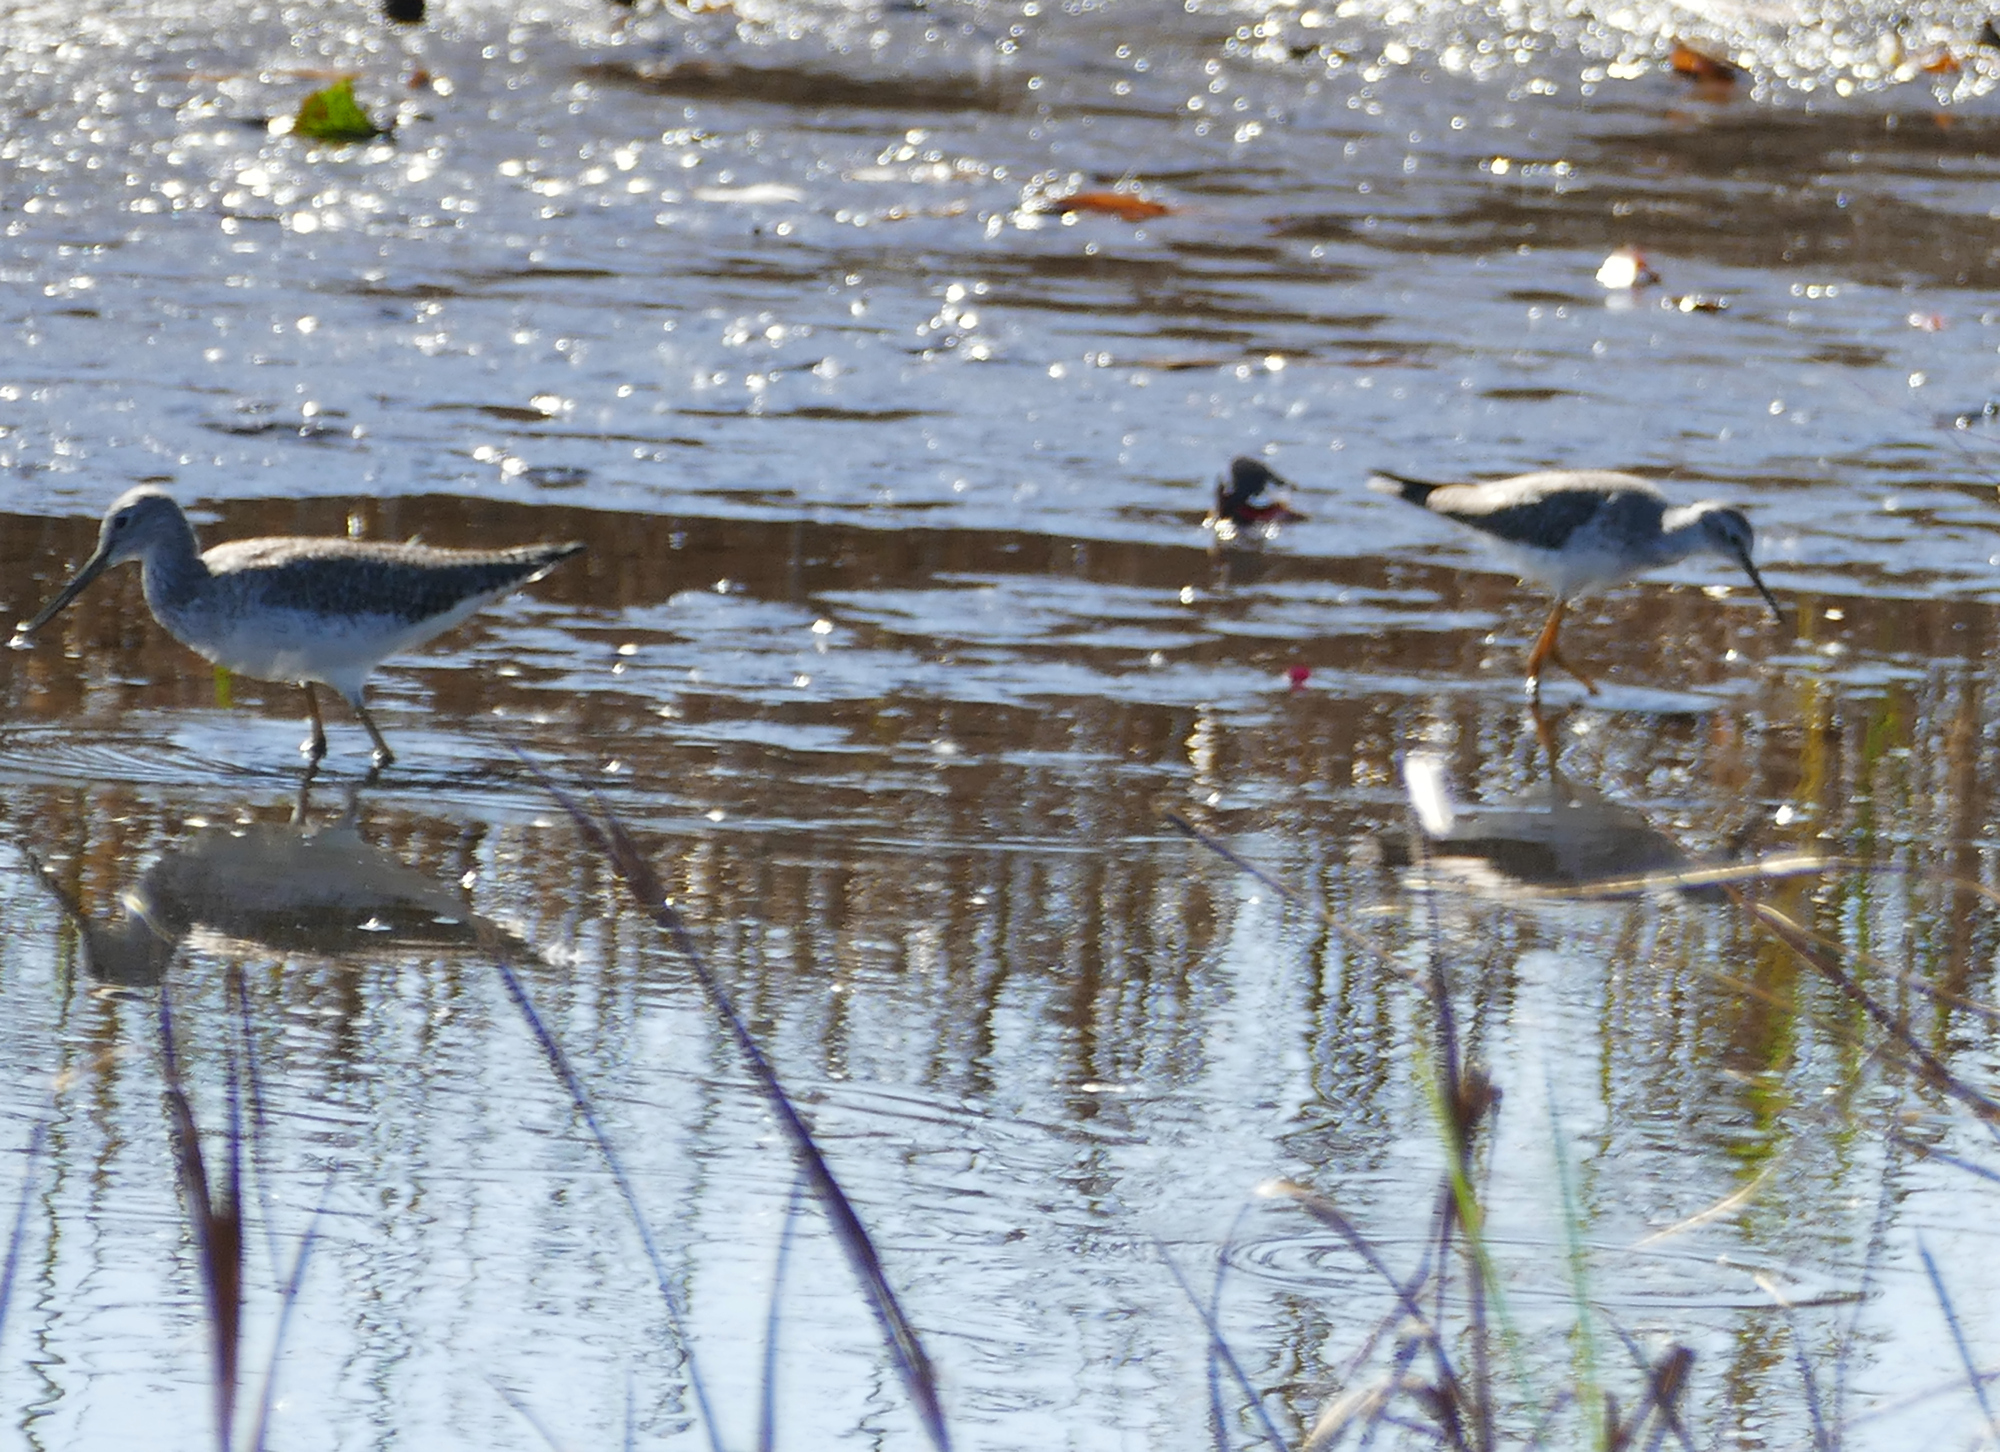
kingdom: Animalia
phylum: Chordata
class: Aves
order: Charadriiformes
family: Scolopacidae
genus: Tringa
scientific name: Tringa flavipes
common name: Lesser yellowlegs
